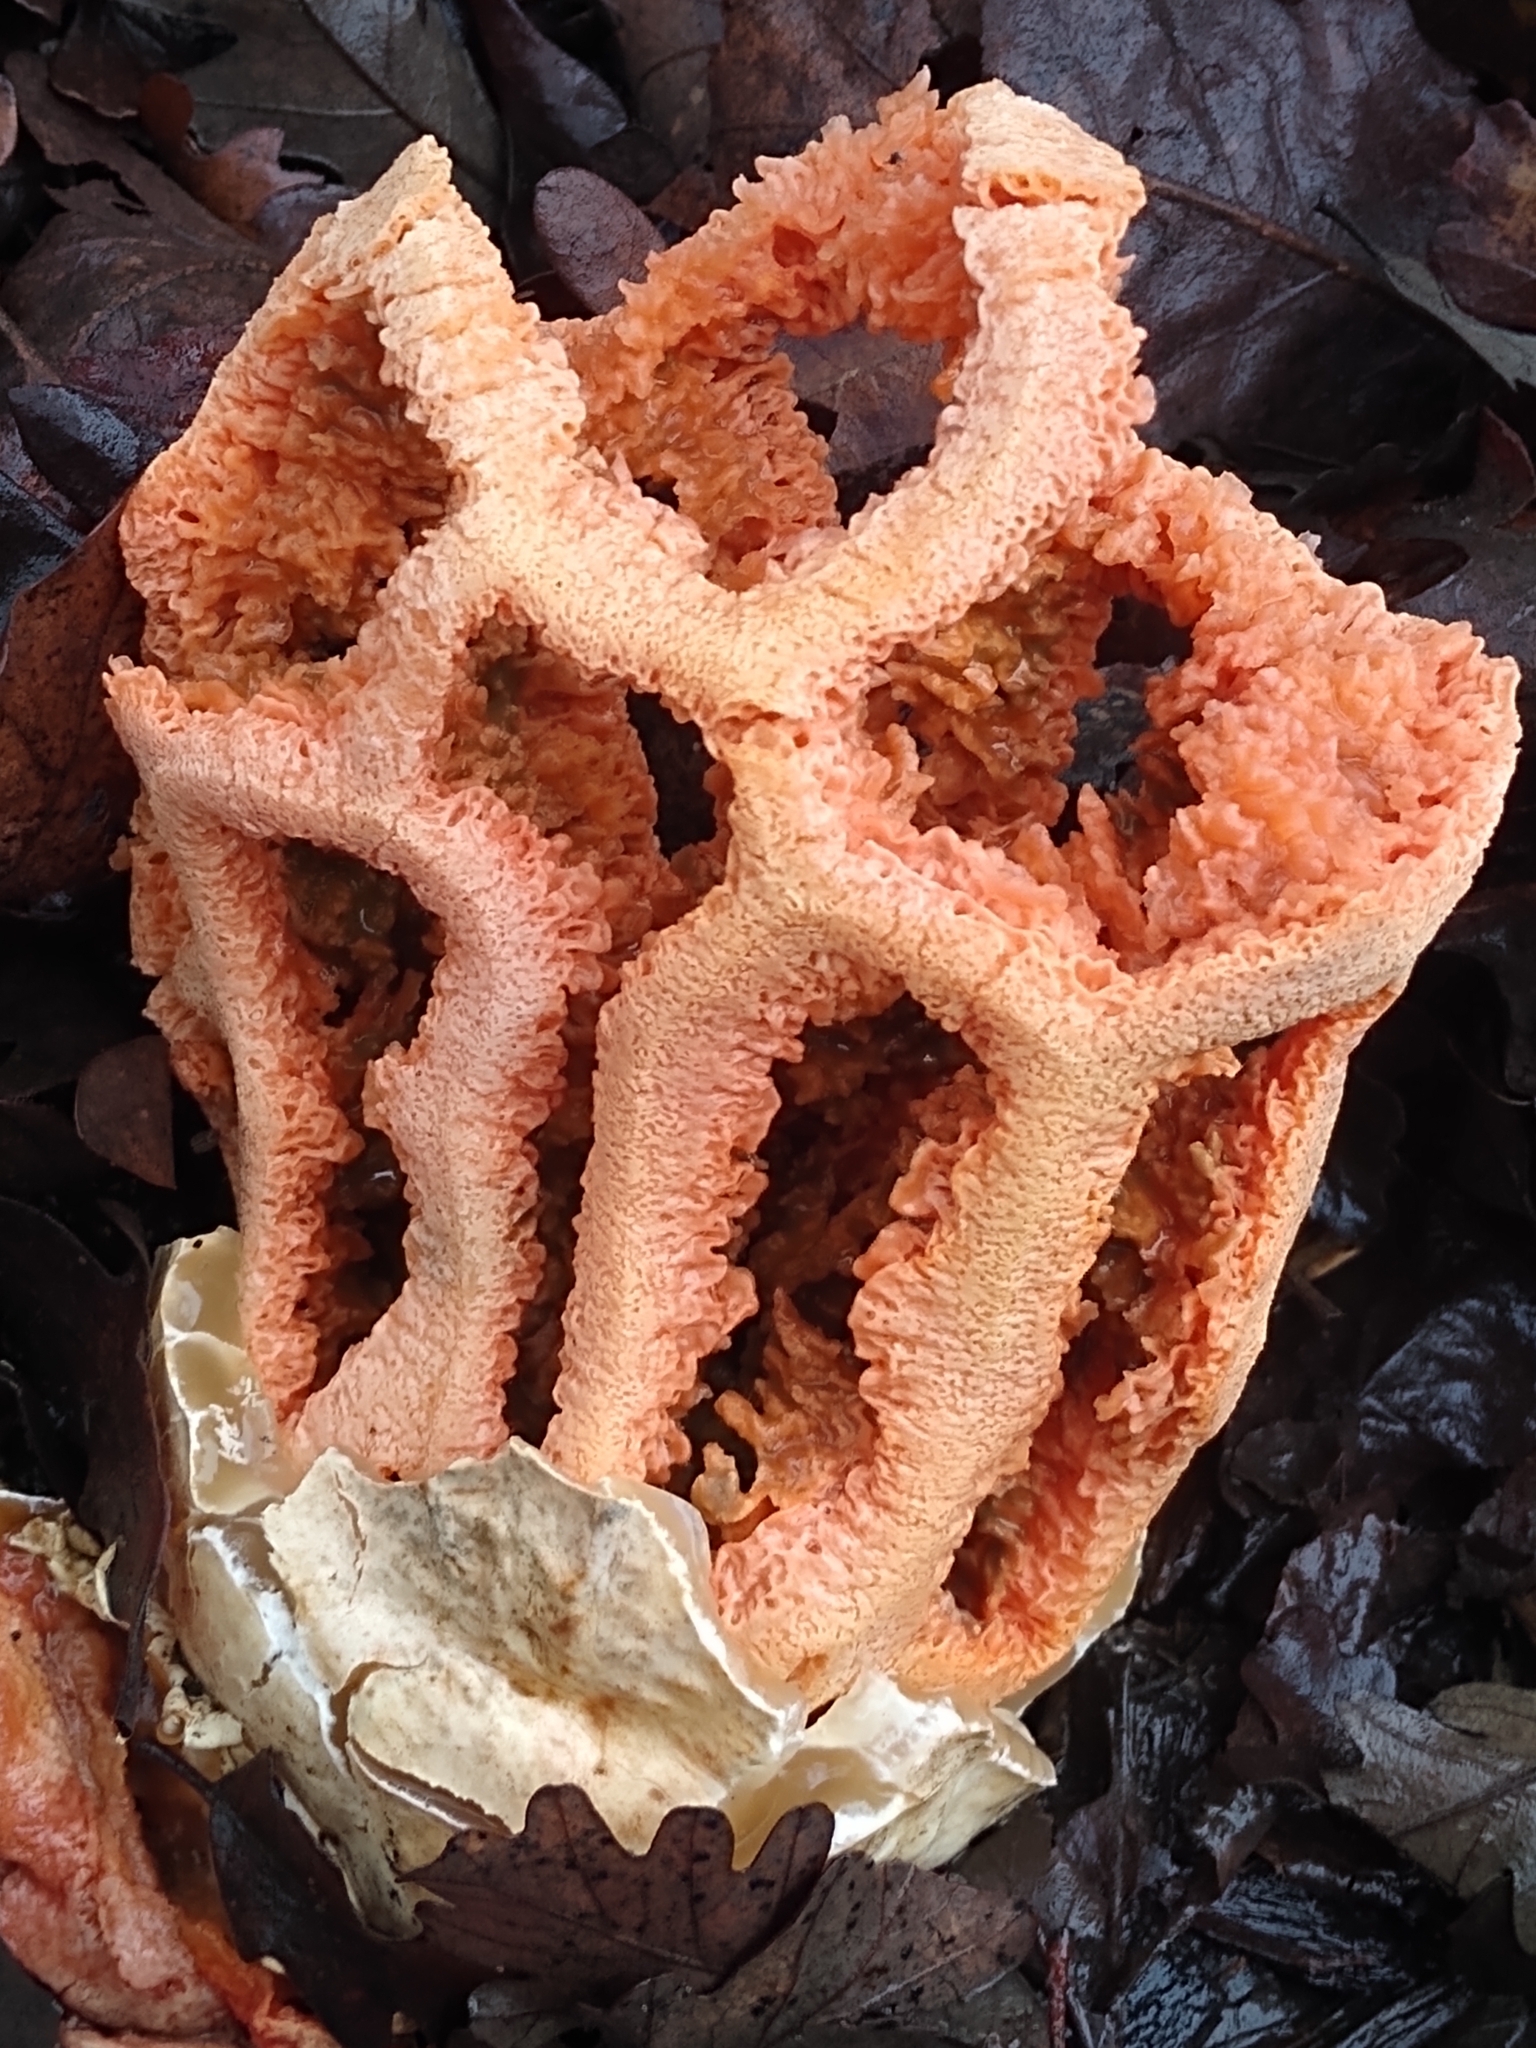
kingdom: Fungi
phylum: Basidiomycota
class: Agaricomycetes
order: Phallales
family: Phallaceae
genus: Clathrus
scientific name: Clathrus ruber
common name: Red cage
